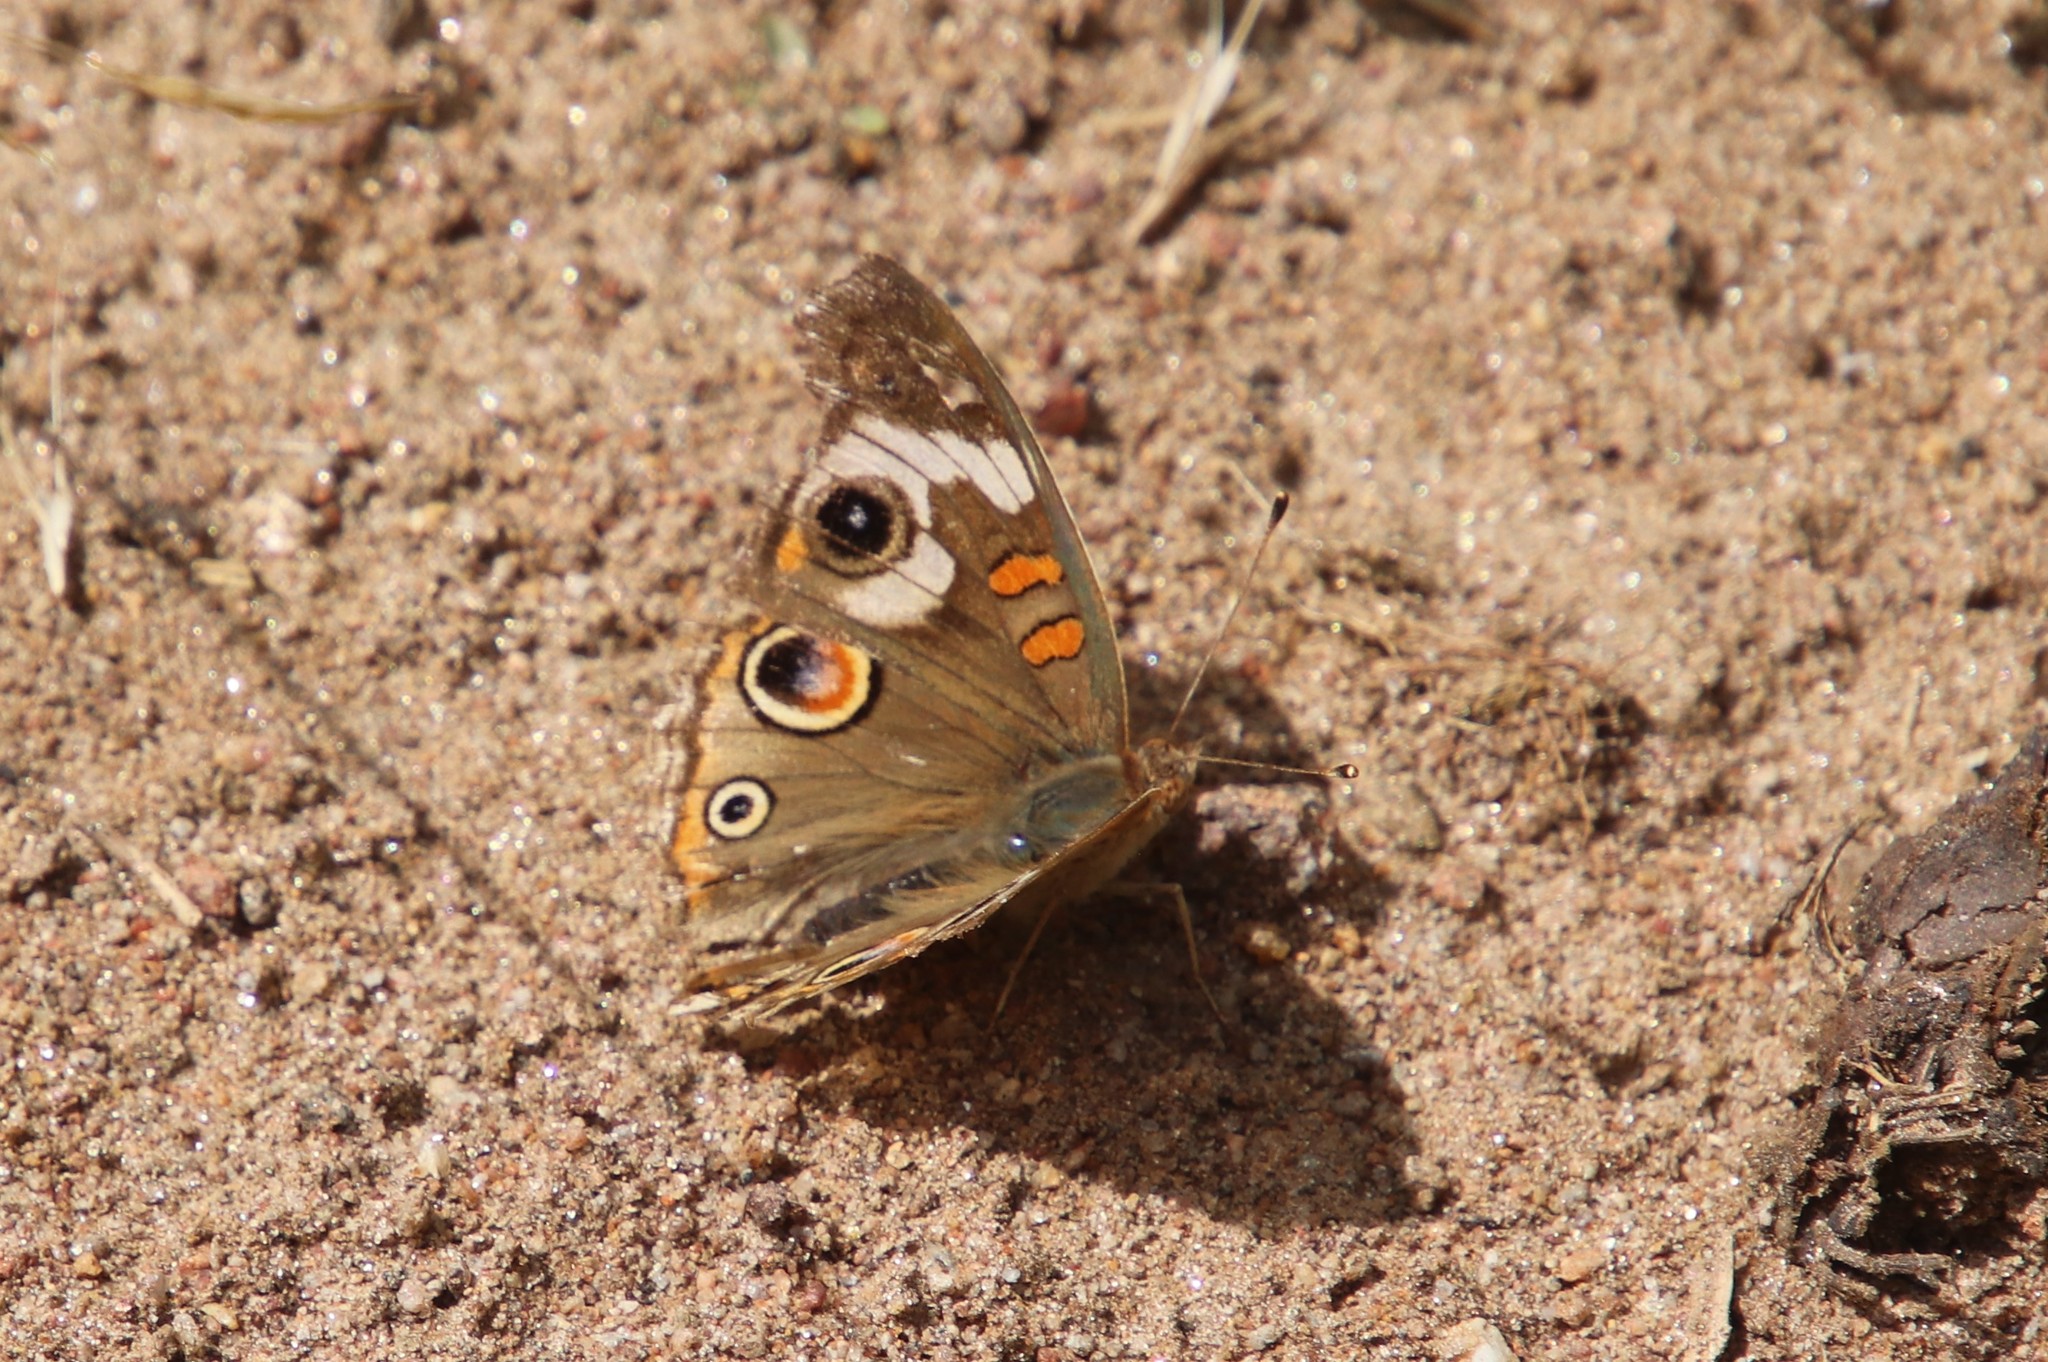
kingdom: Animalia
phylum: Arthropoda
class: Insecta
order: Lepidoptera
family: Nymphalidae
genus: Junonia
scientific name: Junonia grisea
